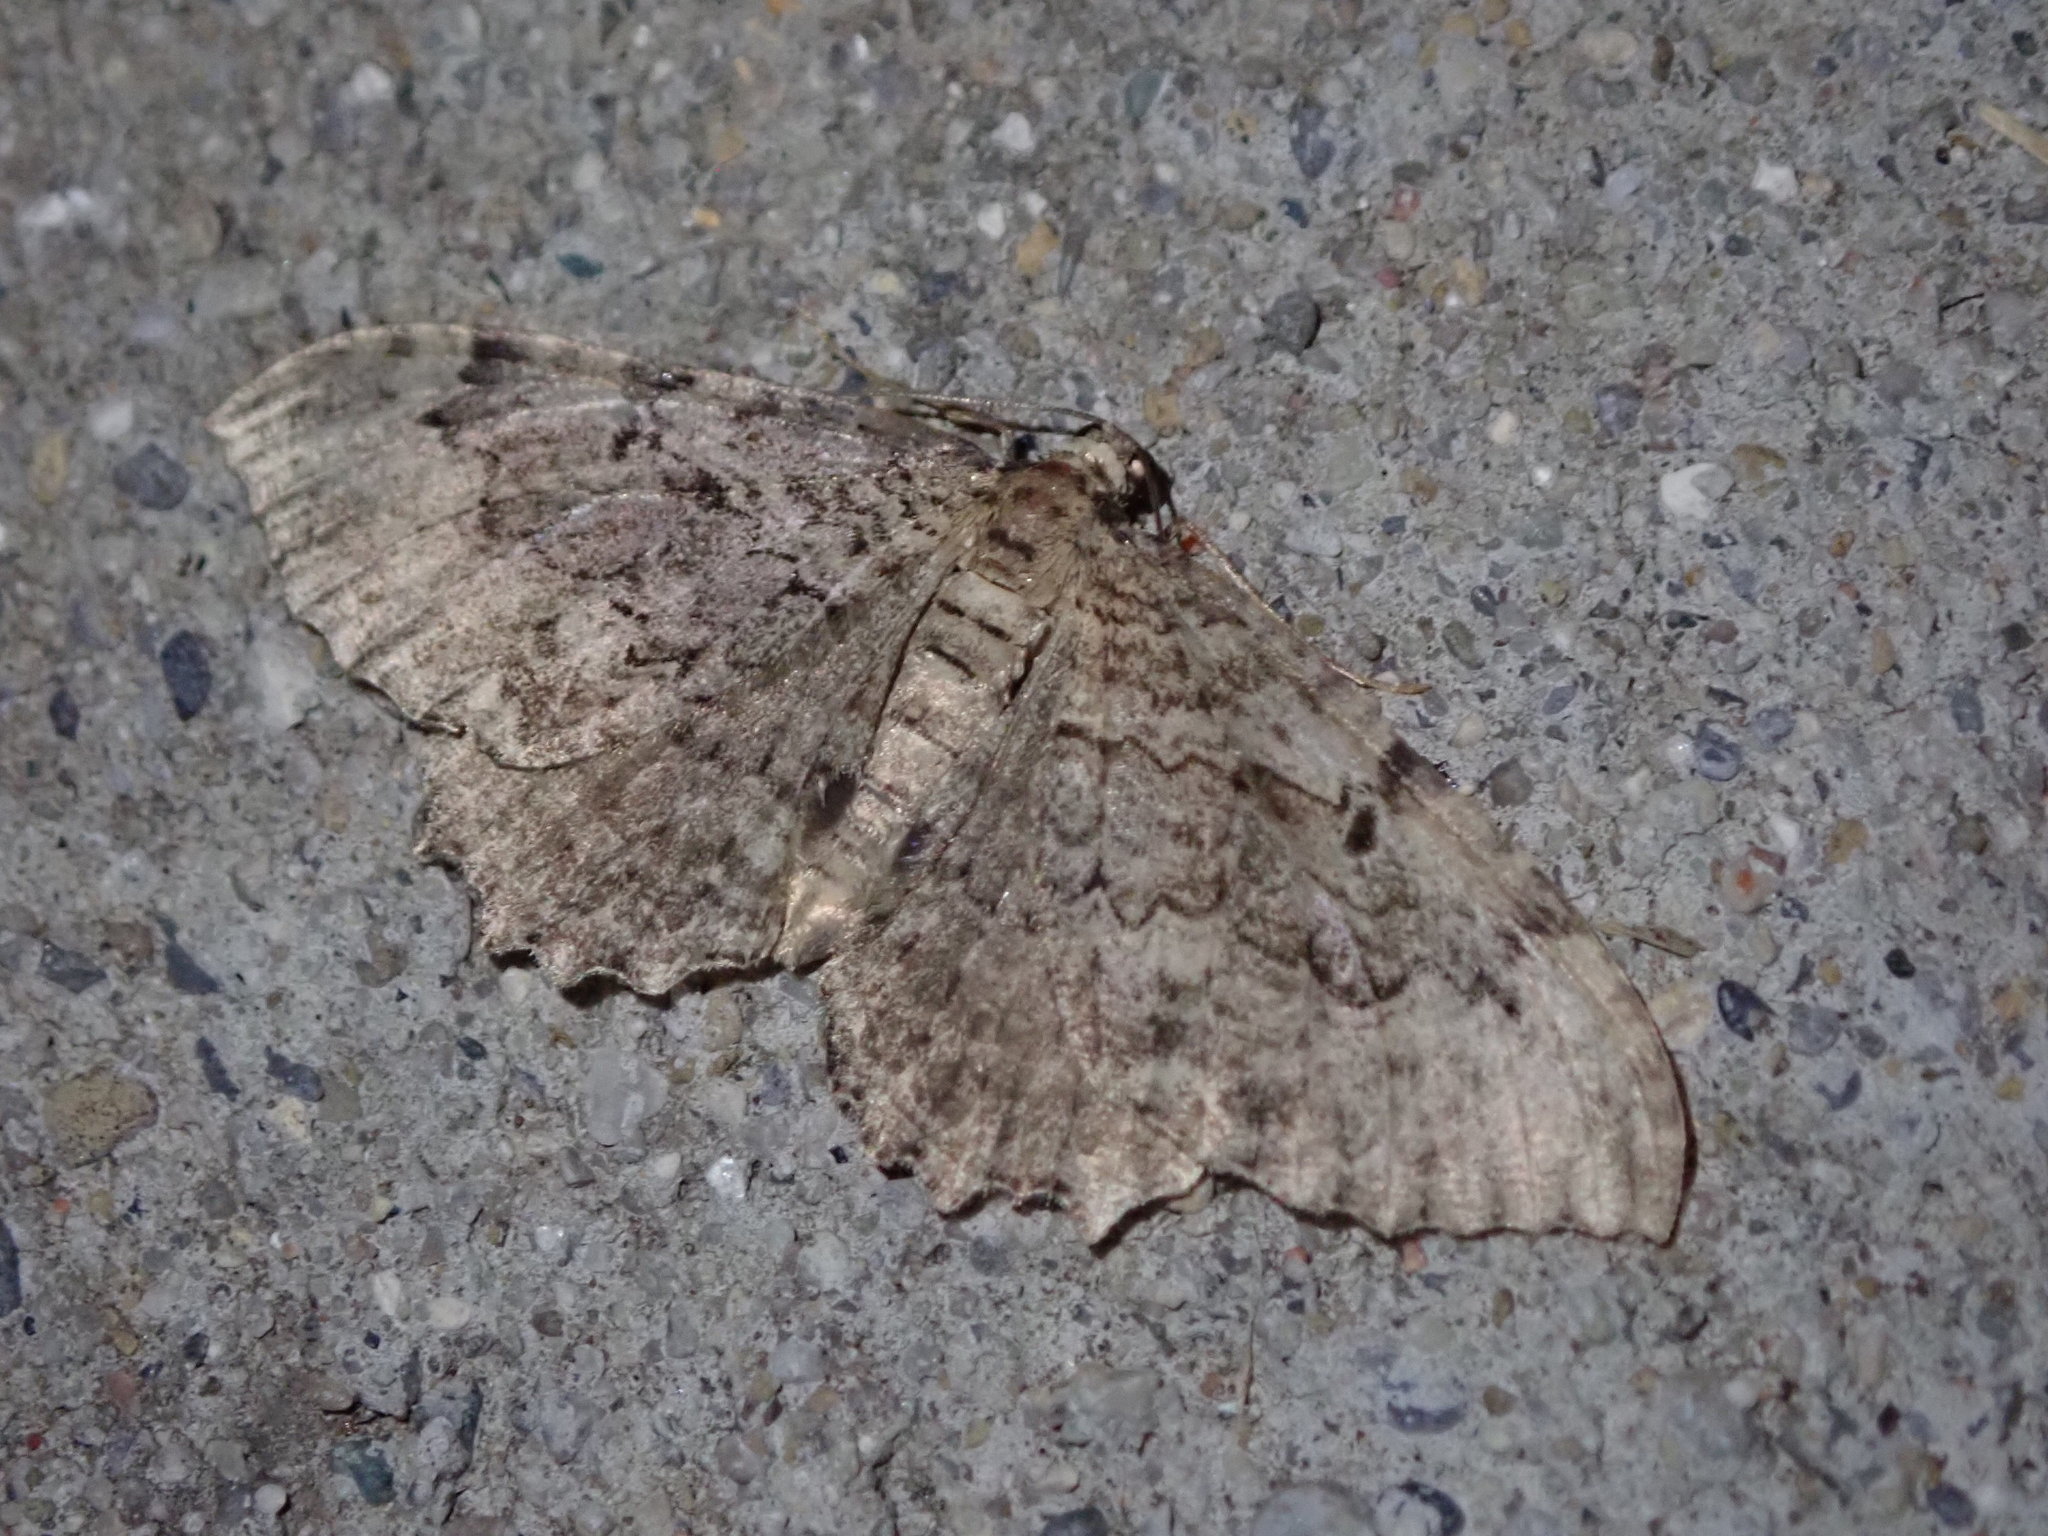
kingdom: Animalia
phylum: Arthropoda
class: Insecta
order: Lepidoptera
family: Geometridae
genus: Protoboarmia
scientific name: Protoboarmia porcelaria
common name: Porcelain gray
